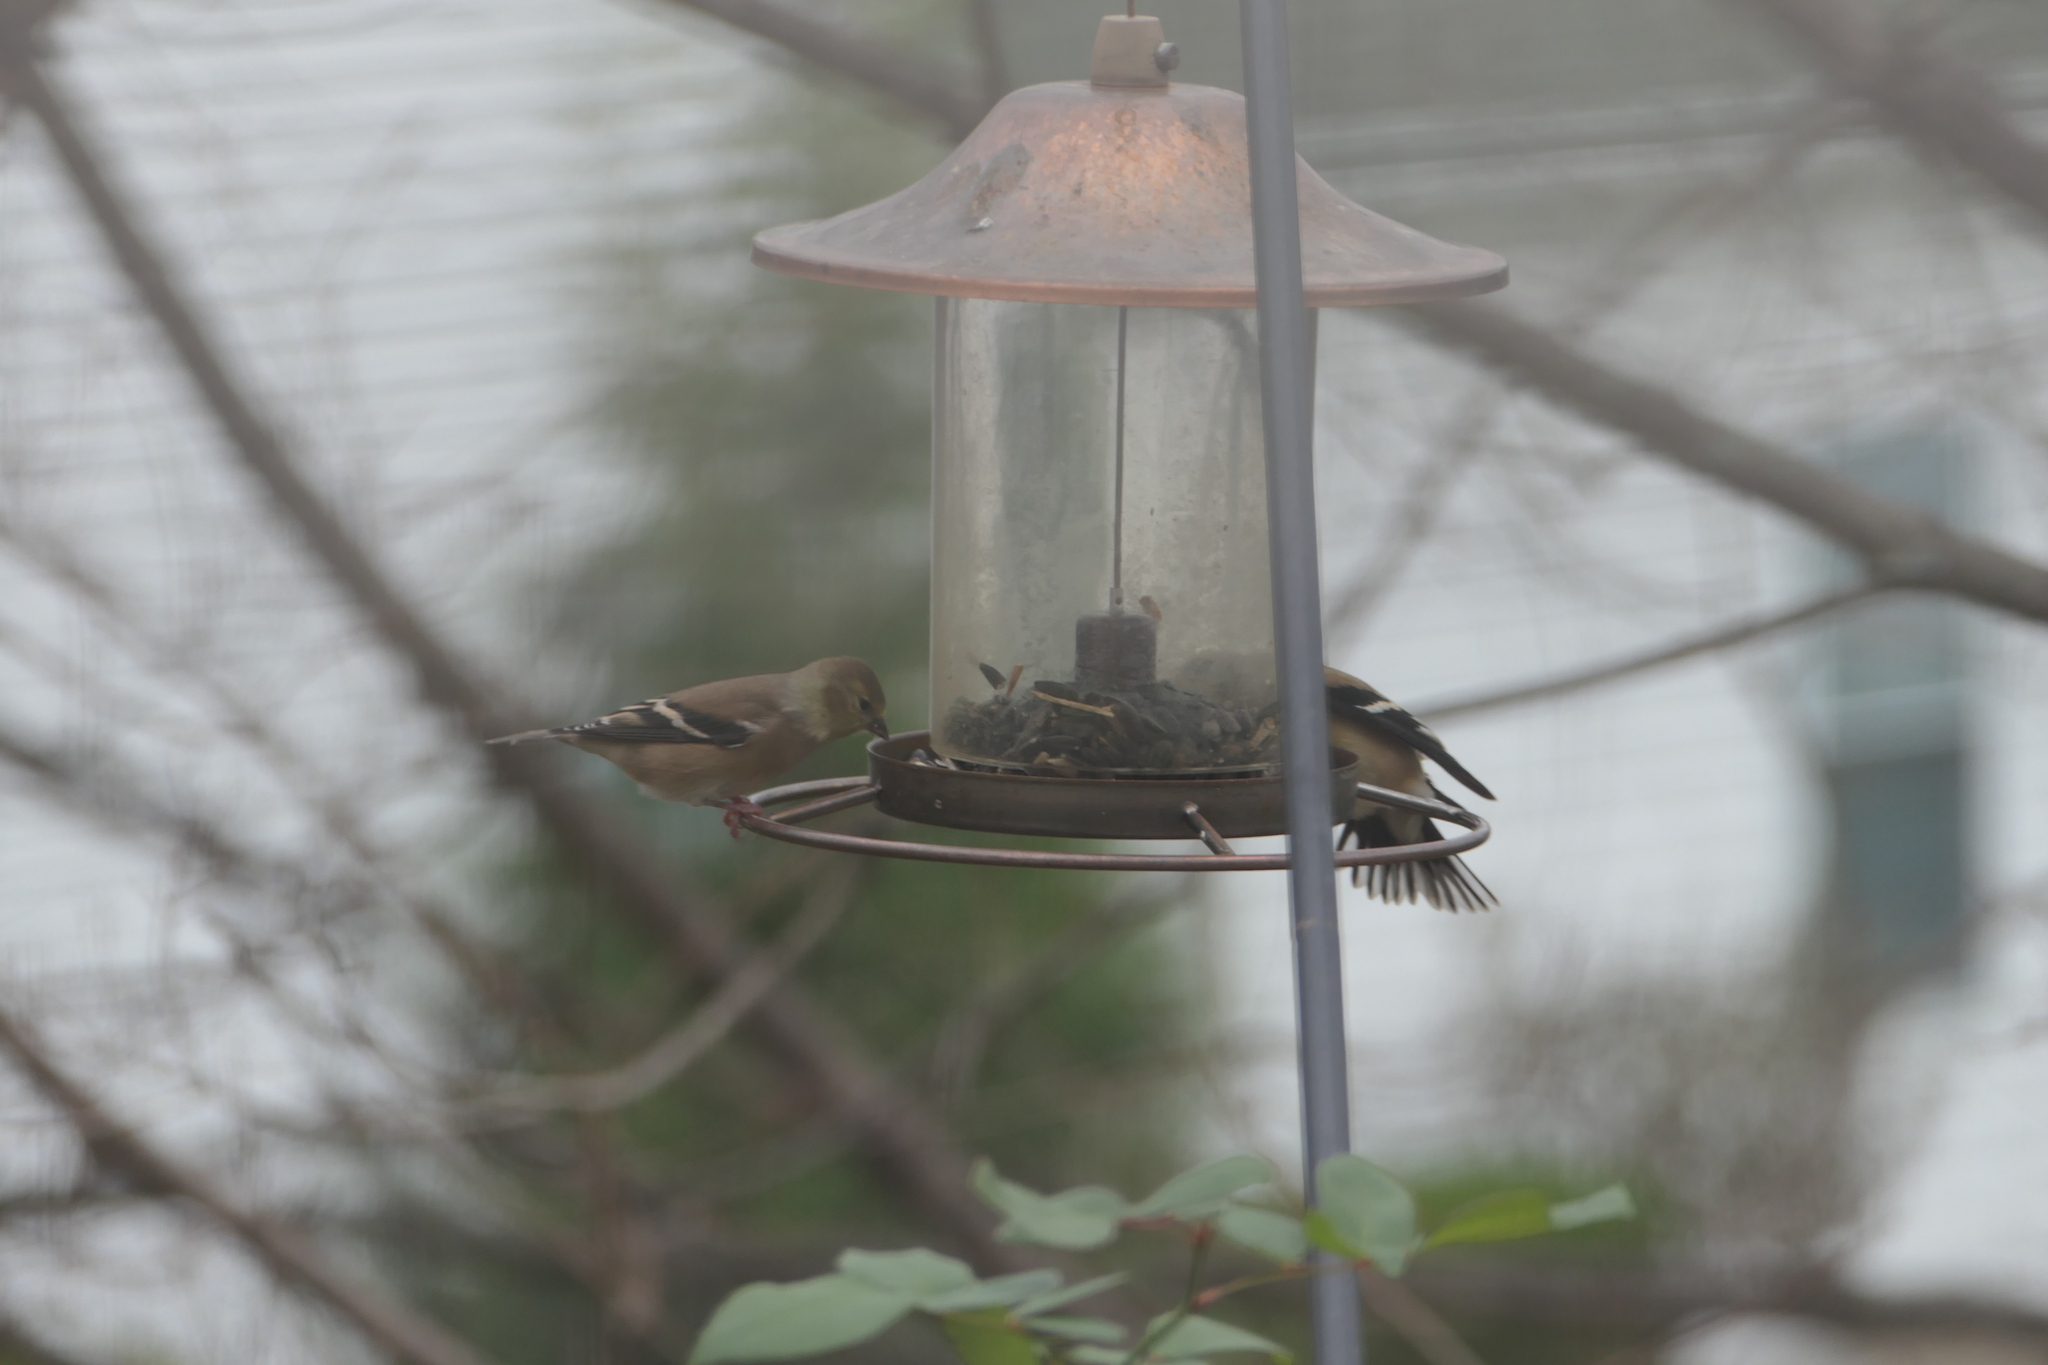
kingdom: Animalia
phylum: Chordata
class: Aves
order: Passeriformes
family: Fringillidae
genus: Spinus
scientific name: Spinus tristis
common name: American goldfinch
